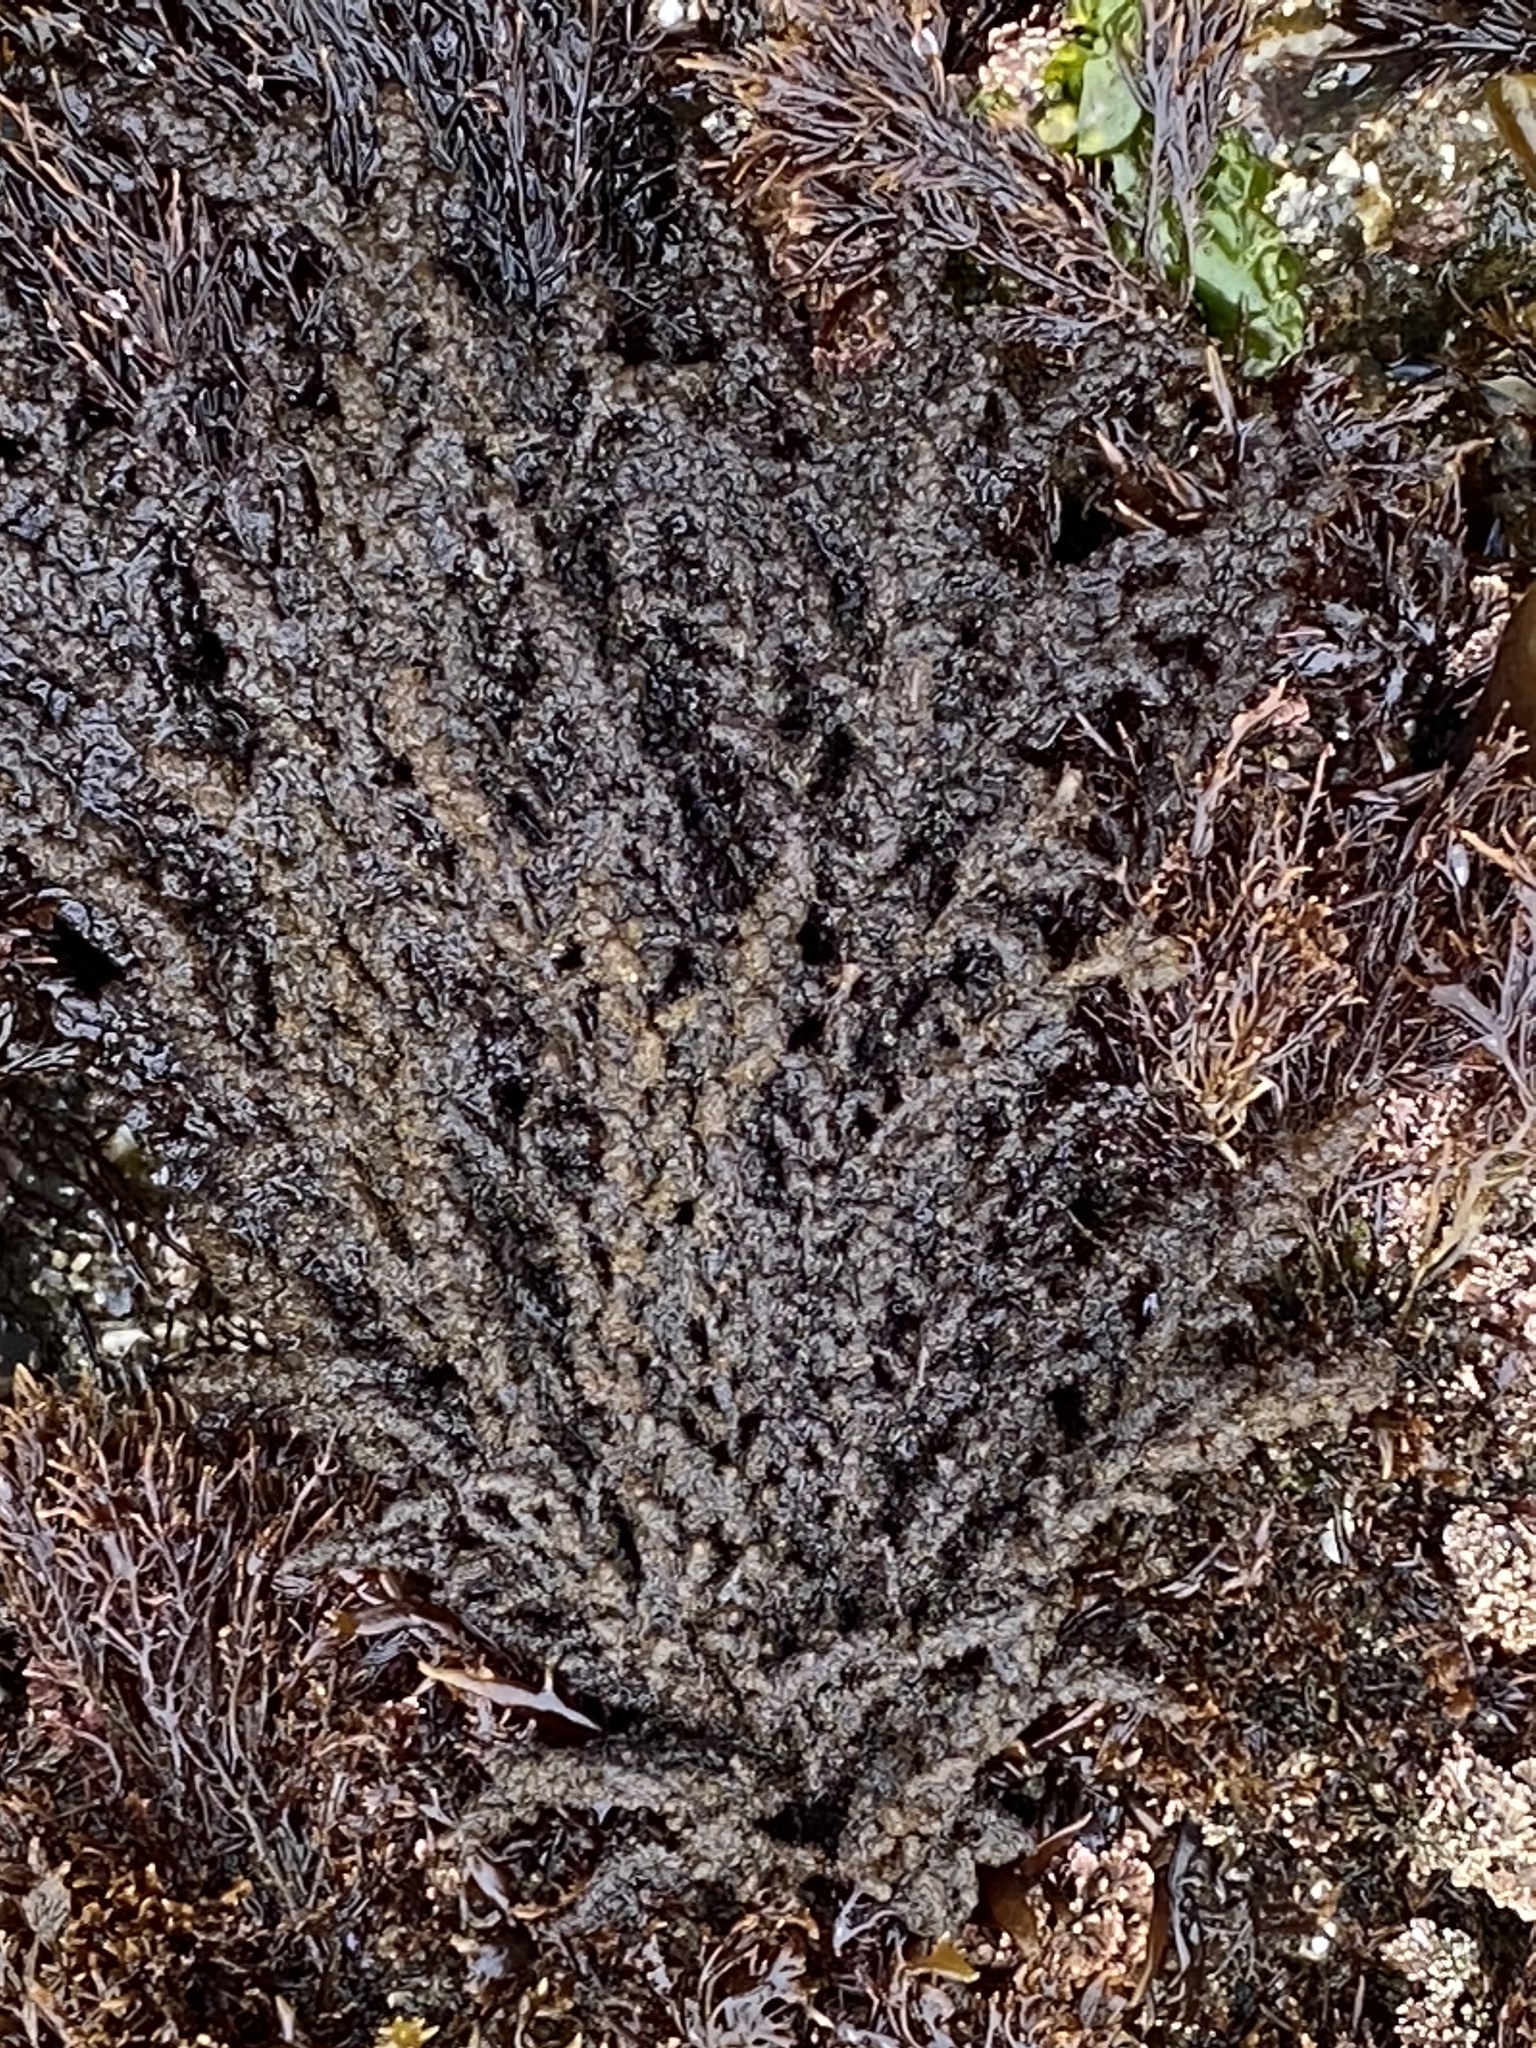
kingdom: Plantae
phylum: Rhodophyta
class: Florideophyceae
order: Ceramiales
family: Callithamniaceae
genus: Callithamnion
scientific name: Callithamnion pikeanum
